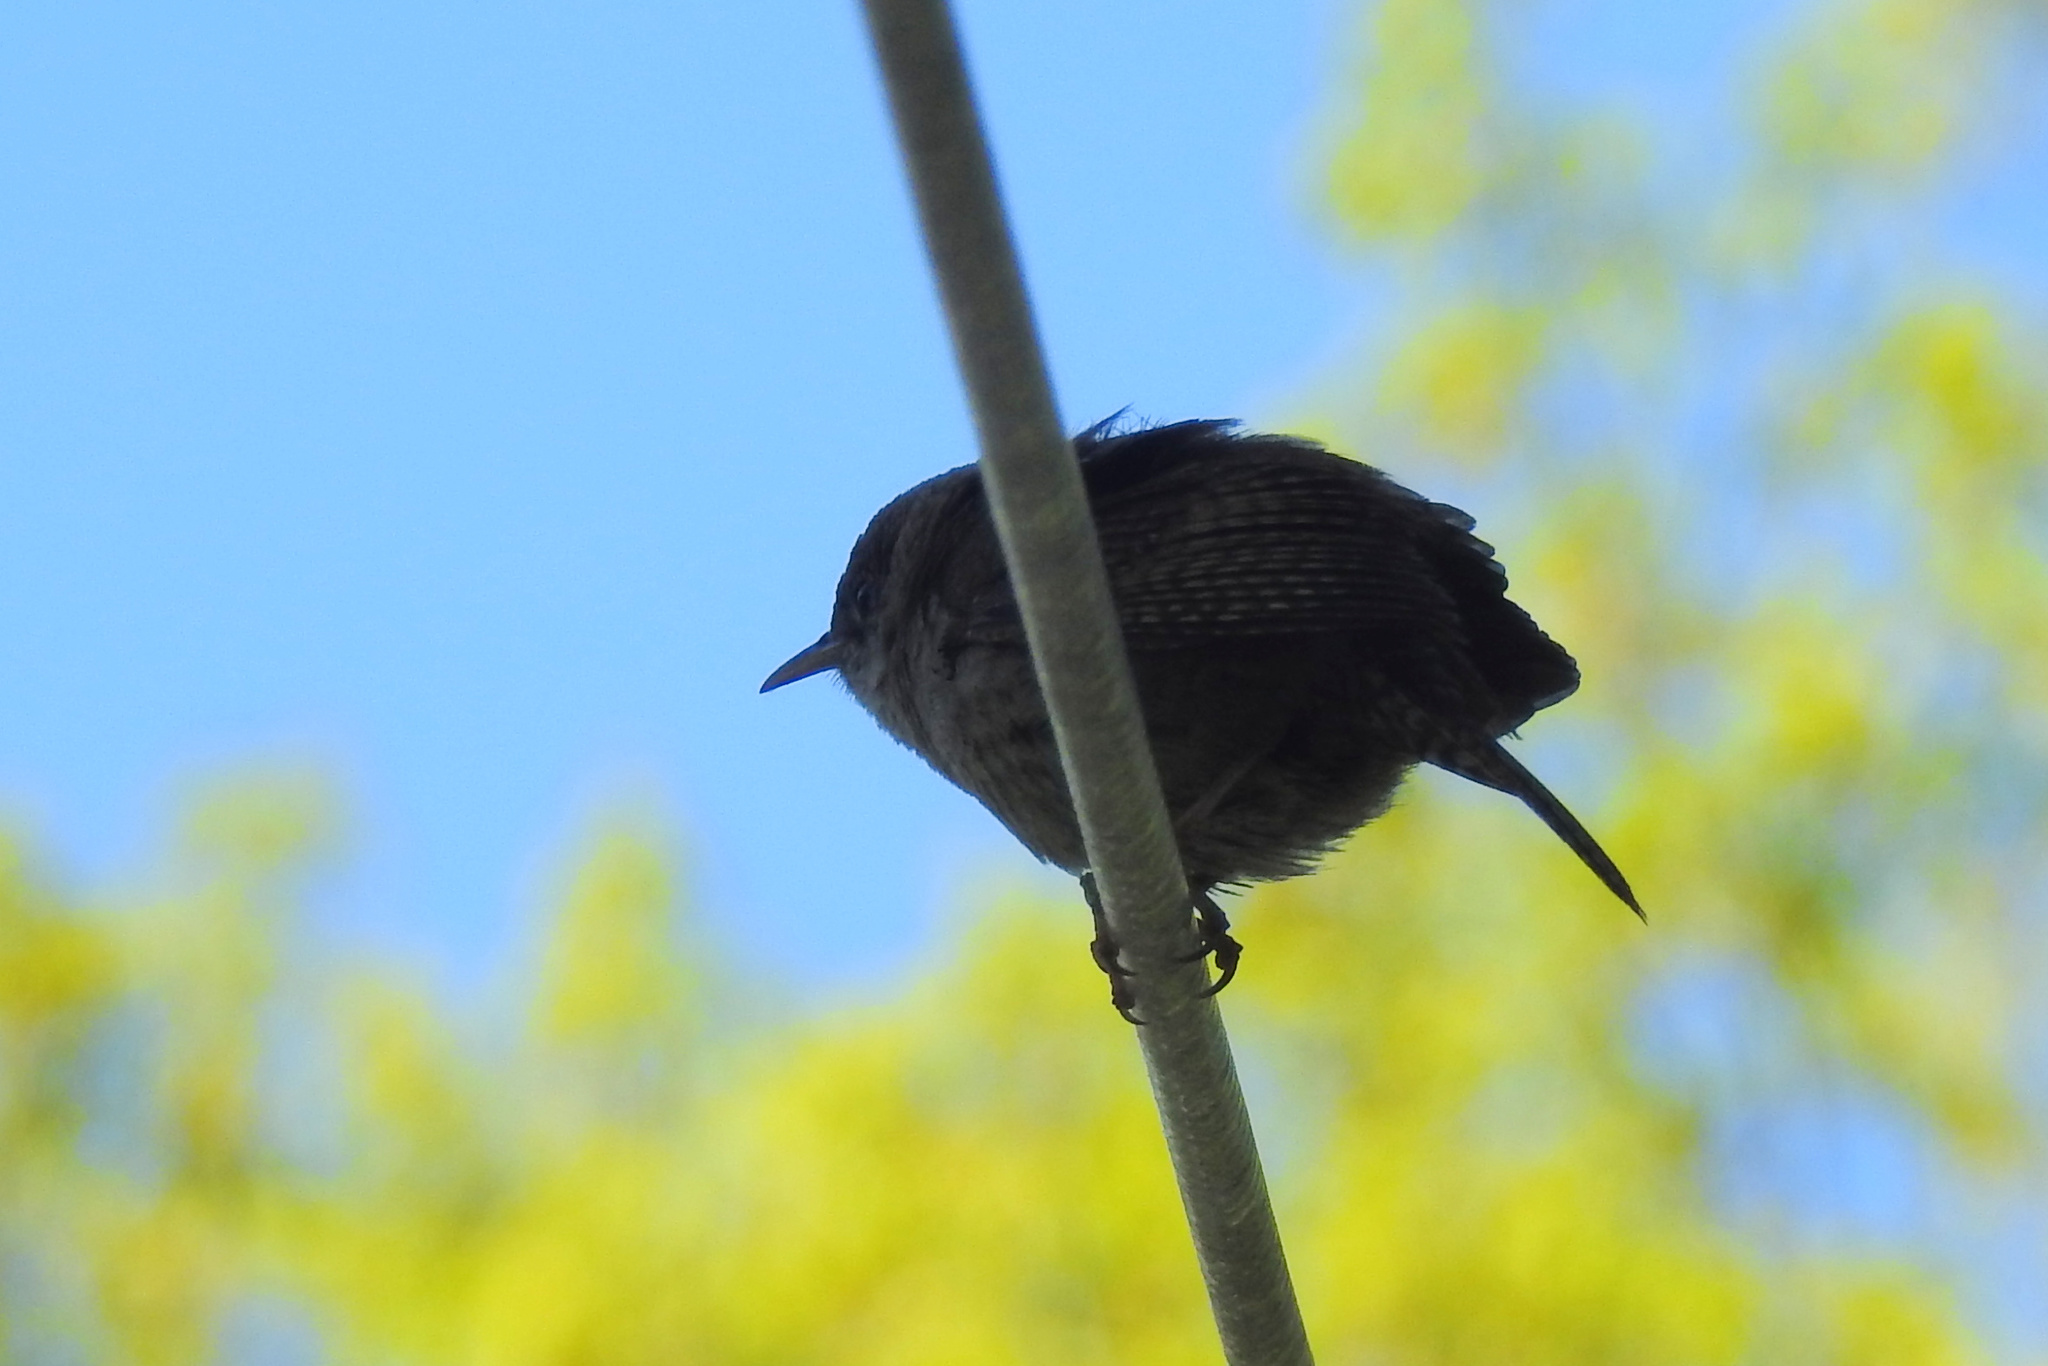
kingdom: Animalia
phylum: Chordata
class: Aves
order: Passeriformes
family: Troglodytidae
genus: Troglodytes
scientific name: Troglodytes aedon
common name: House wren
